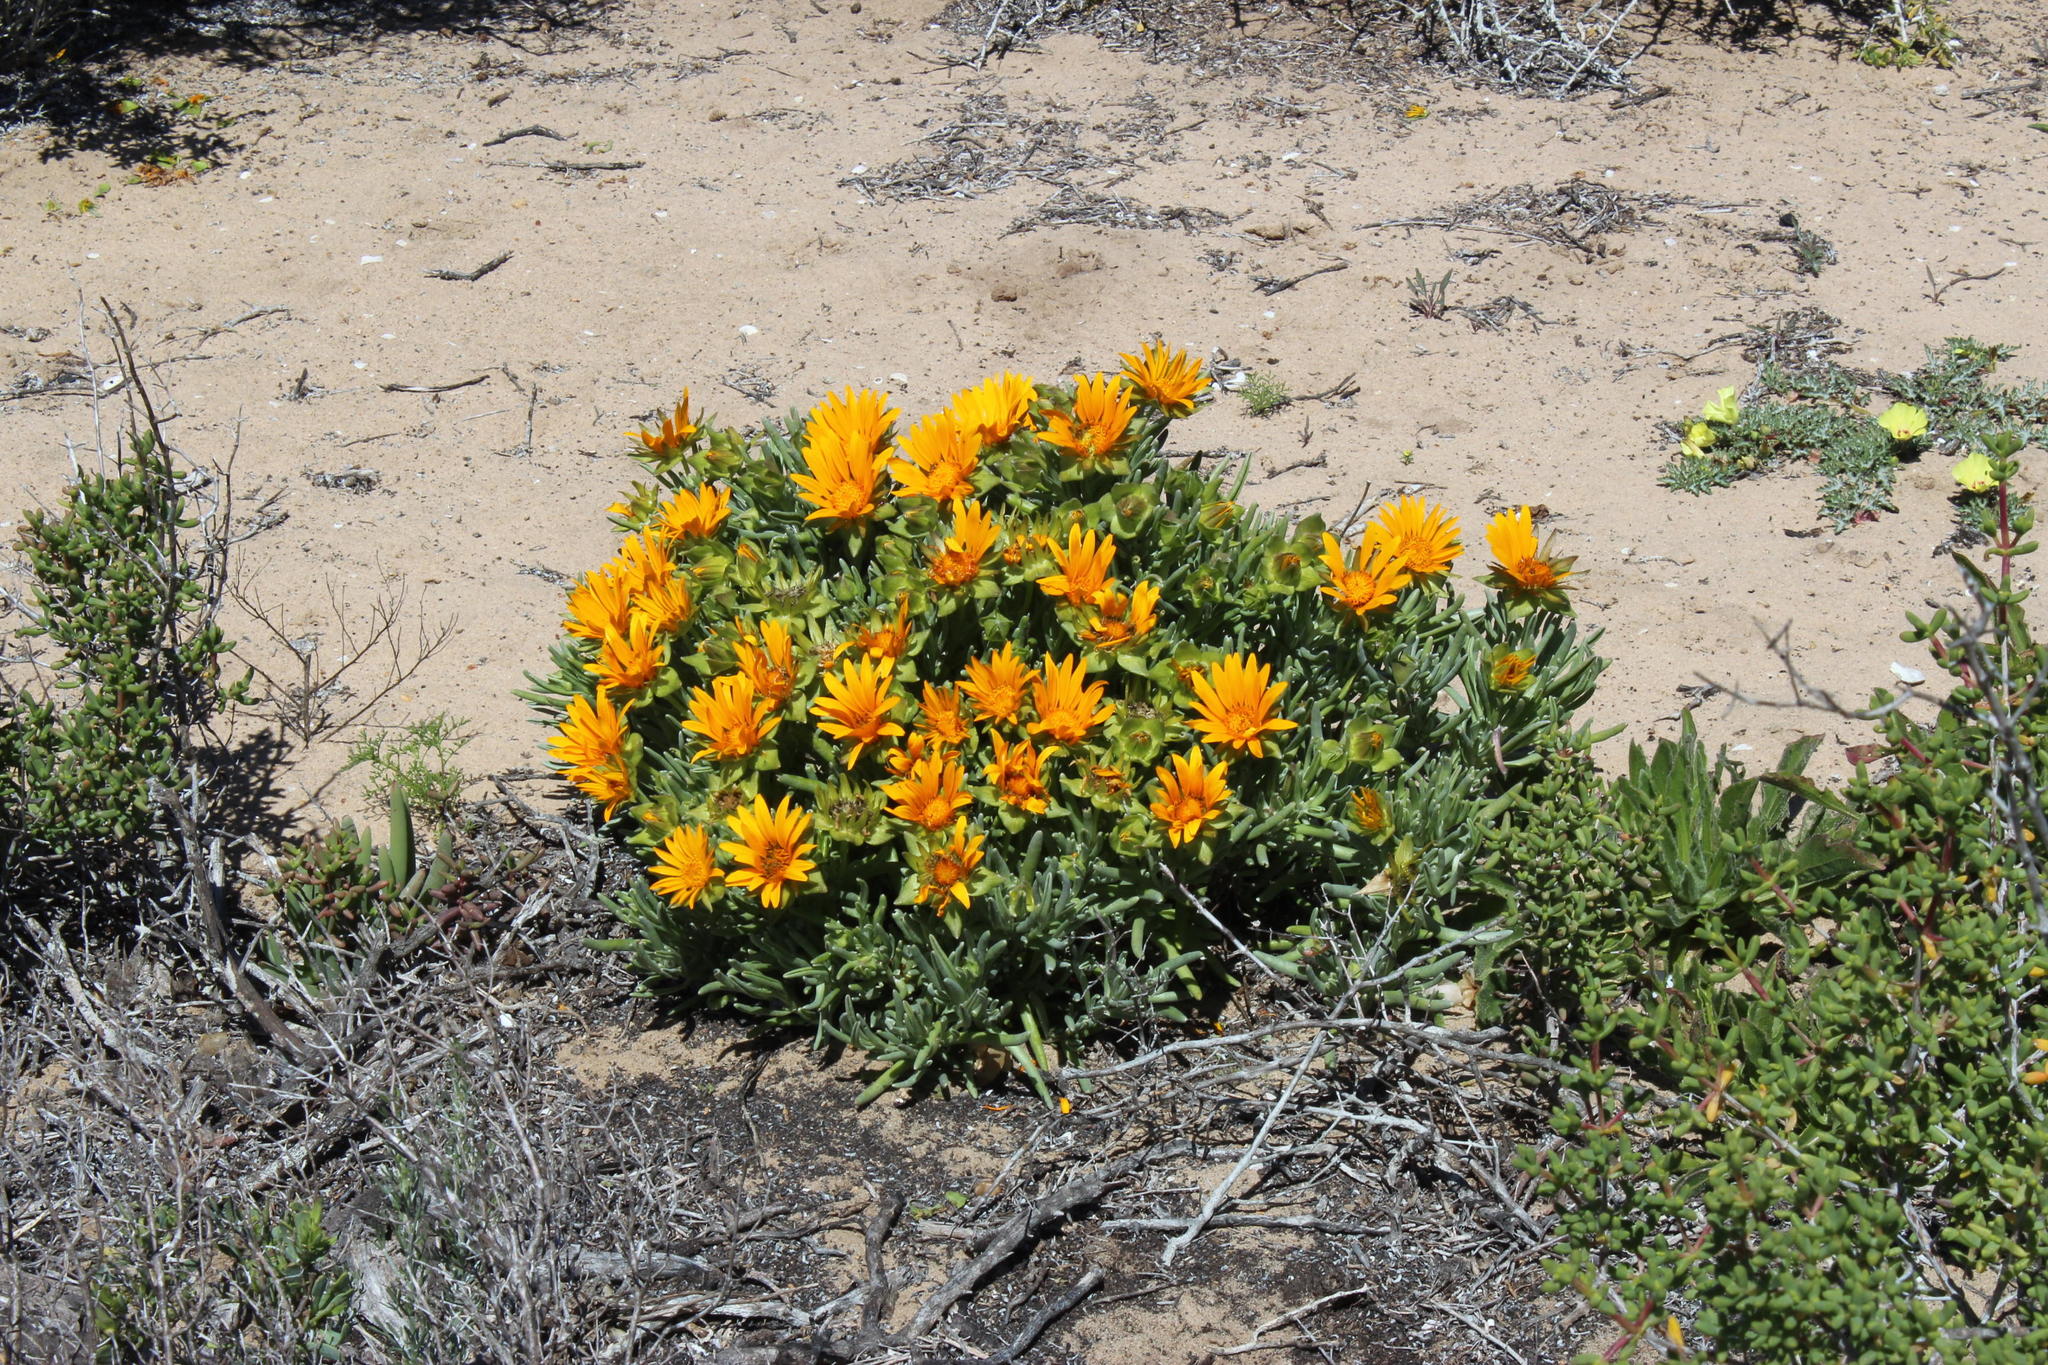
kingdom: Plantae
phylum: Tracheophyta
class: Magnoliopsida
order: Asterales
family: Asteraceae
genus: Didelta
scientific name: Didelta carnosa
